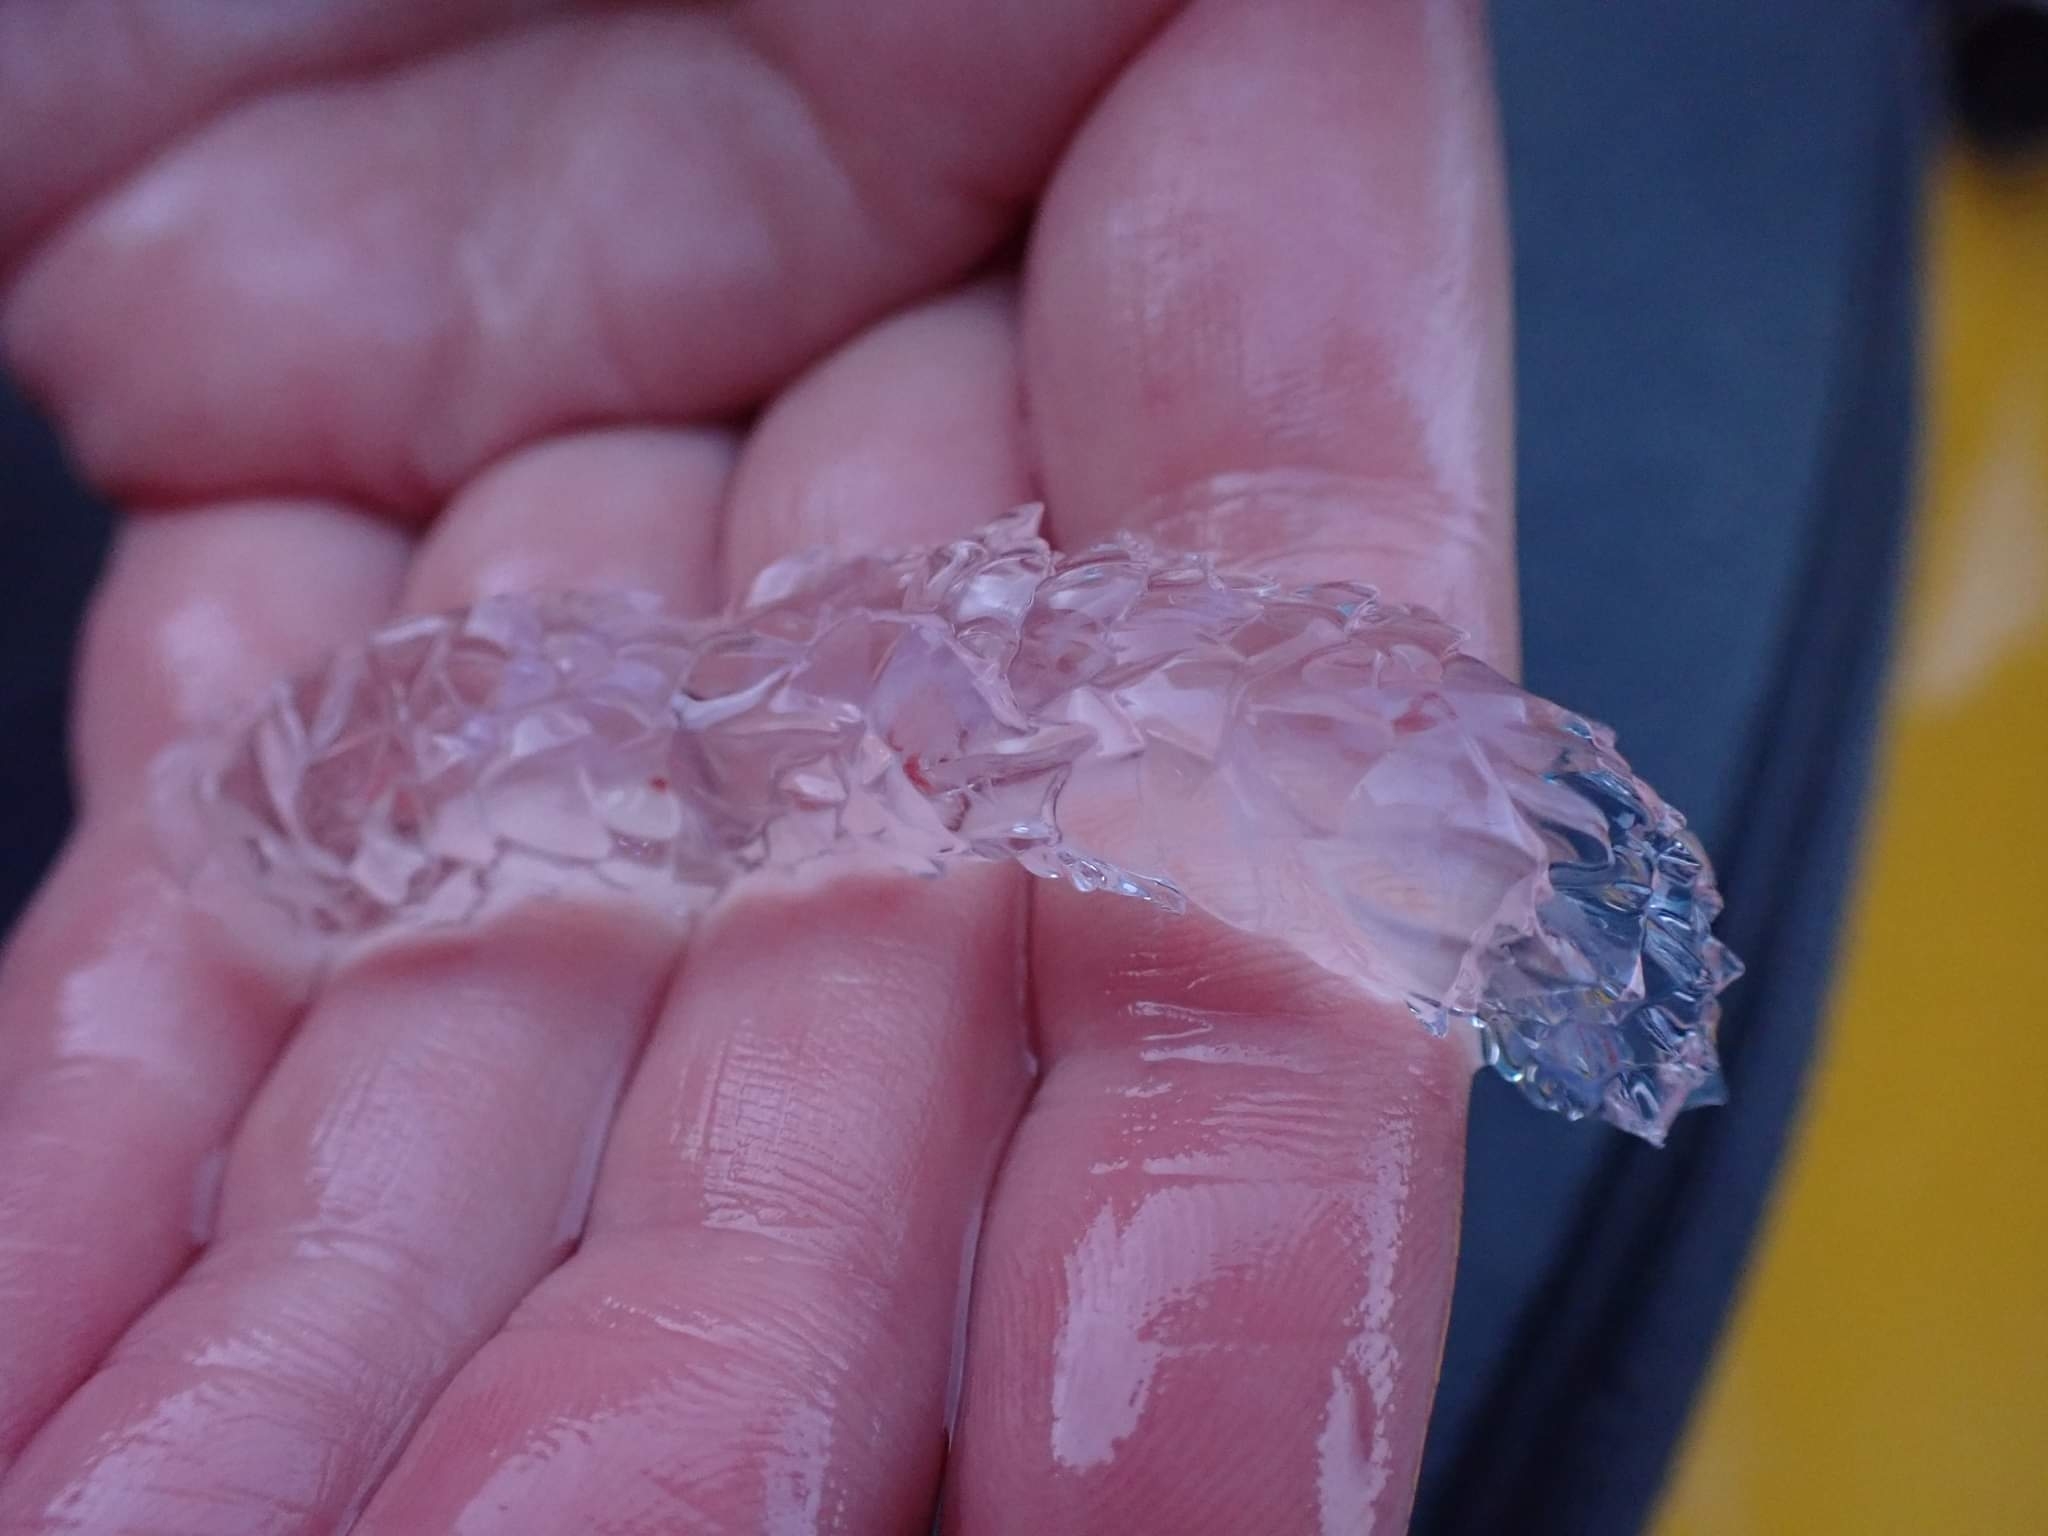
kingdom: Animalia
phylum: Cnidaria
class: Hydrozoa
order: Siphonophorae
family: Agalmatidae
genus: Agalma
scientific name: Agalma okenii
